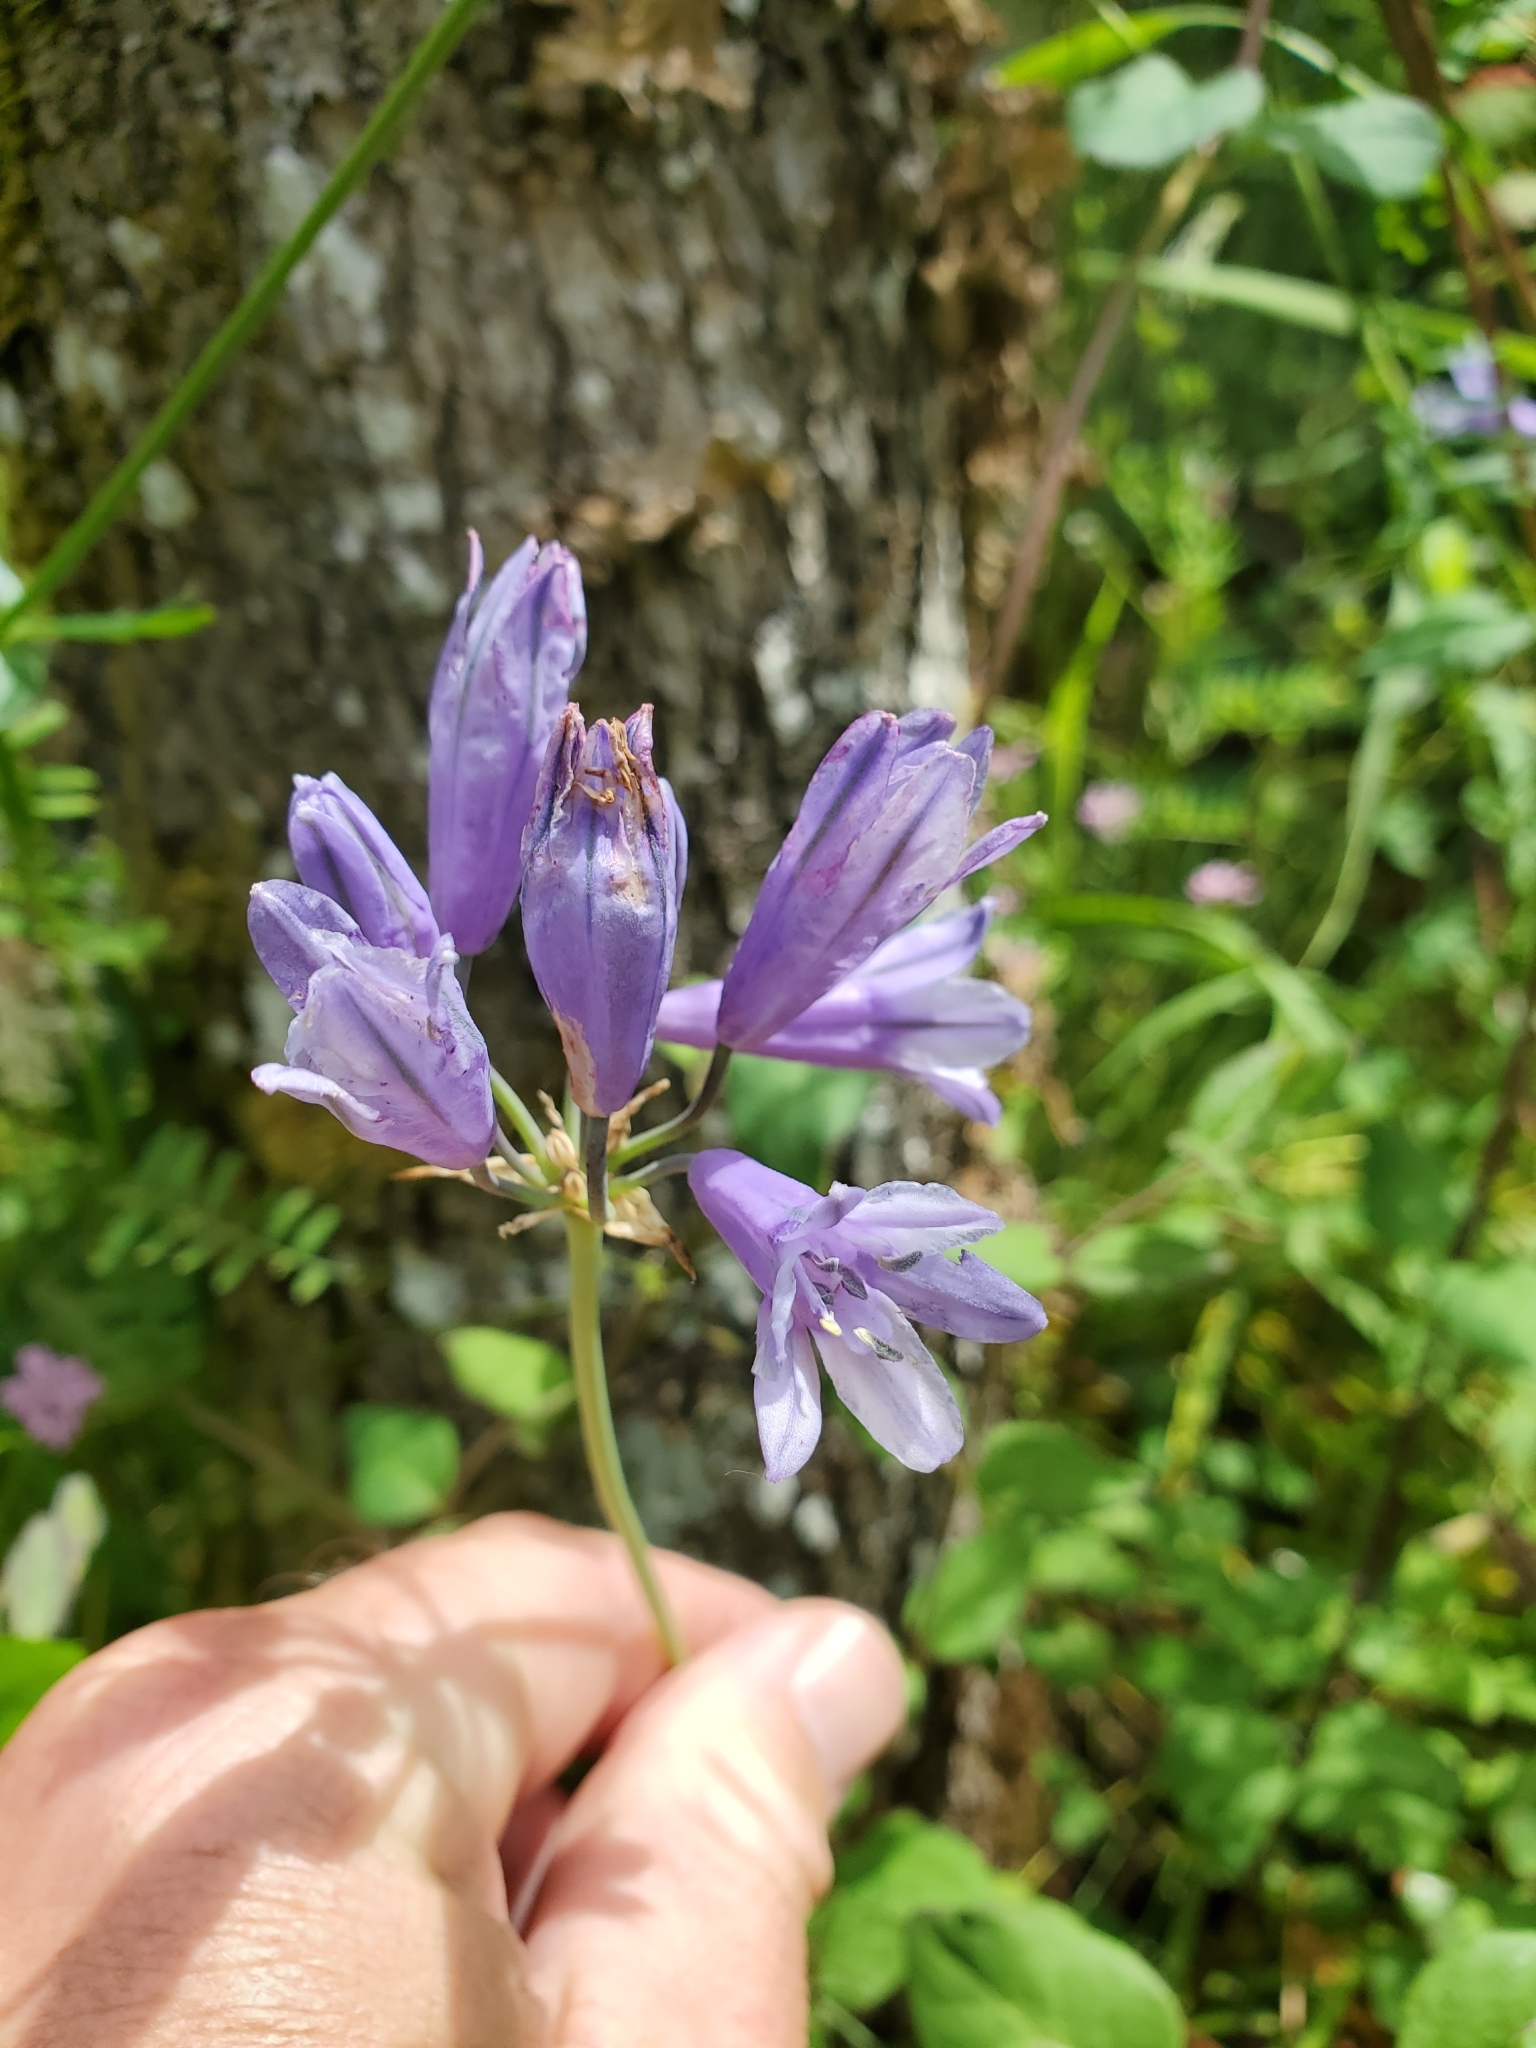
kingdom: Plantae
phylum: Tracheophyta
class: Liliopsida
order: Asparagales
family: Asparagaceae
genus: Triteleia
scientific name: Triteleia grandiflora
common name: Wild hyacinth
